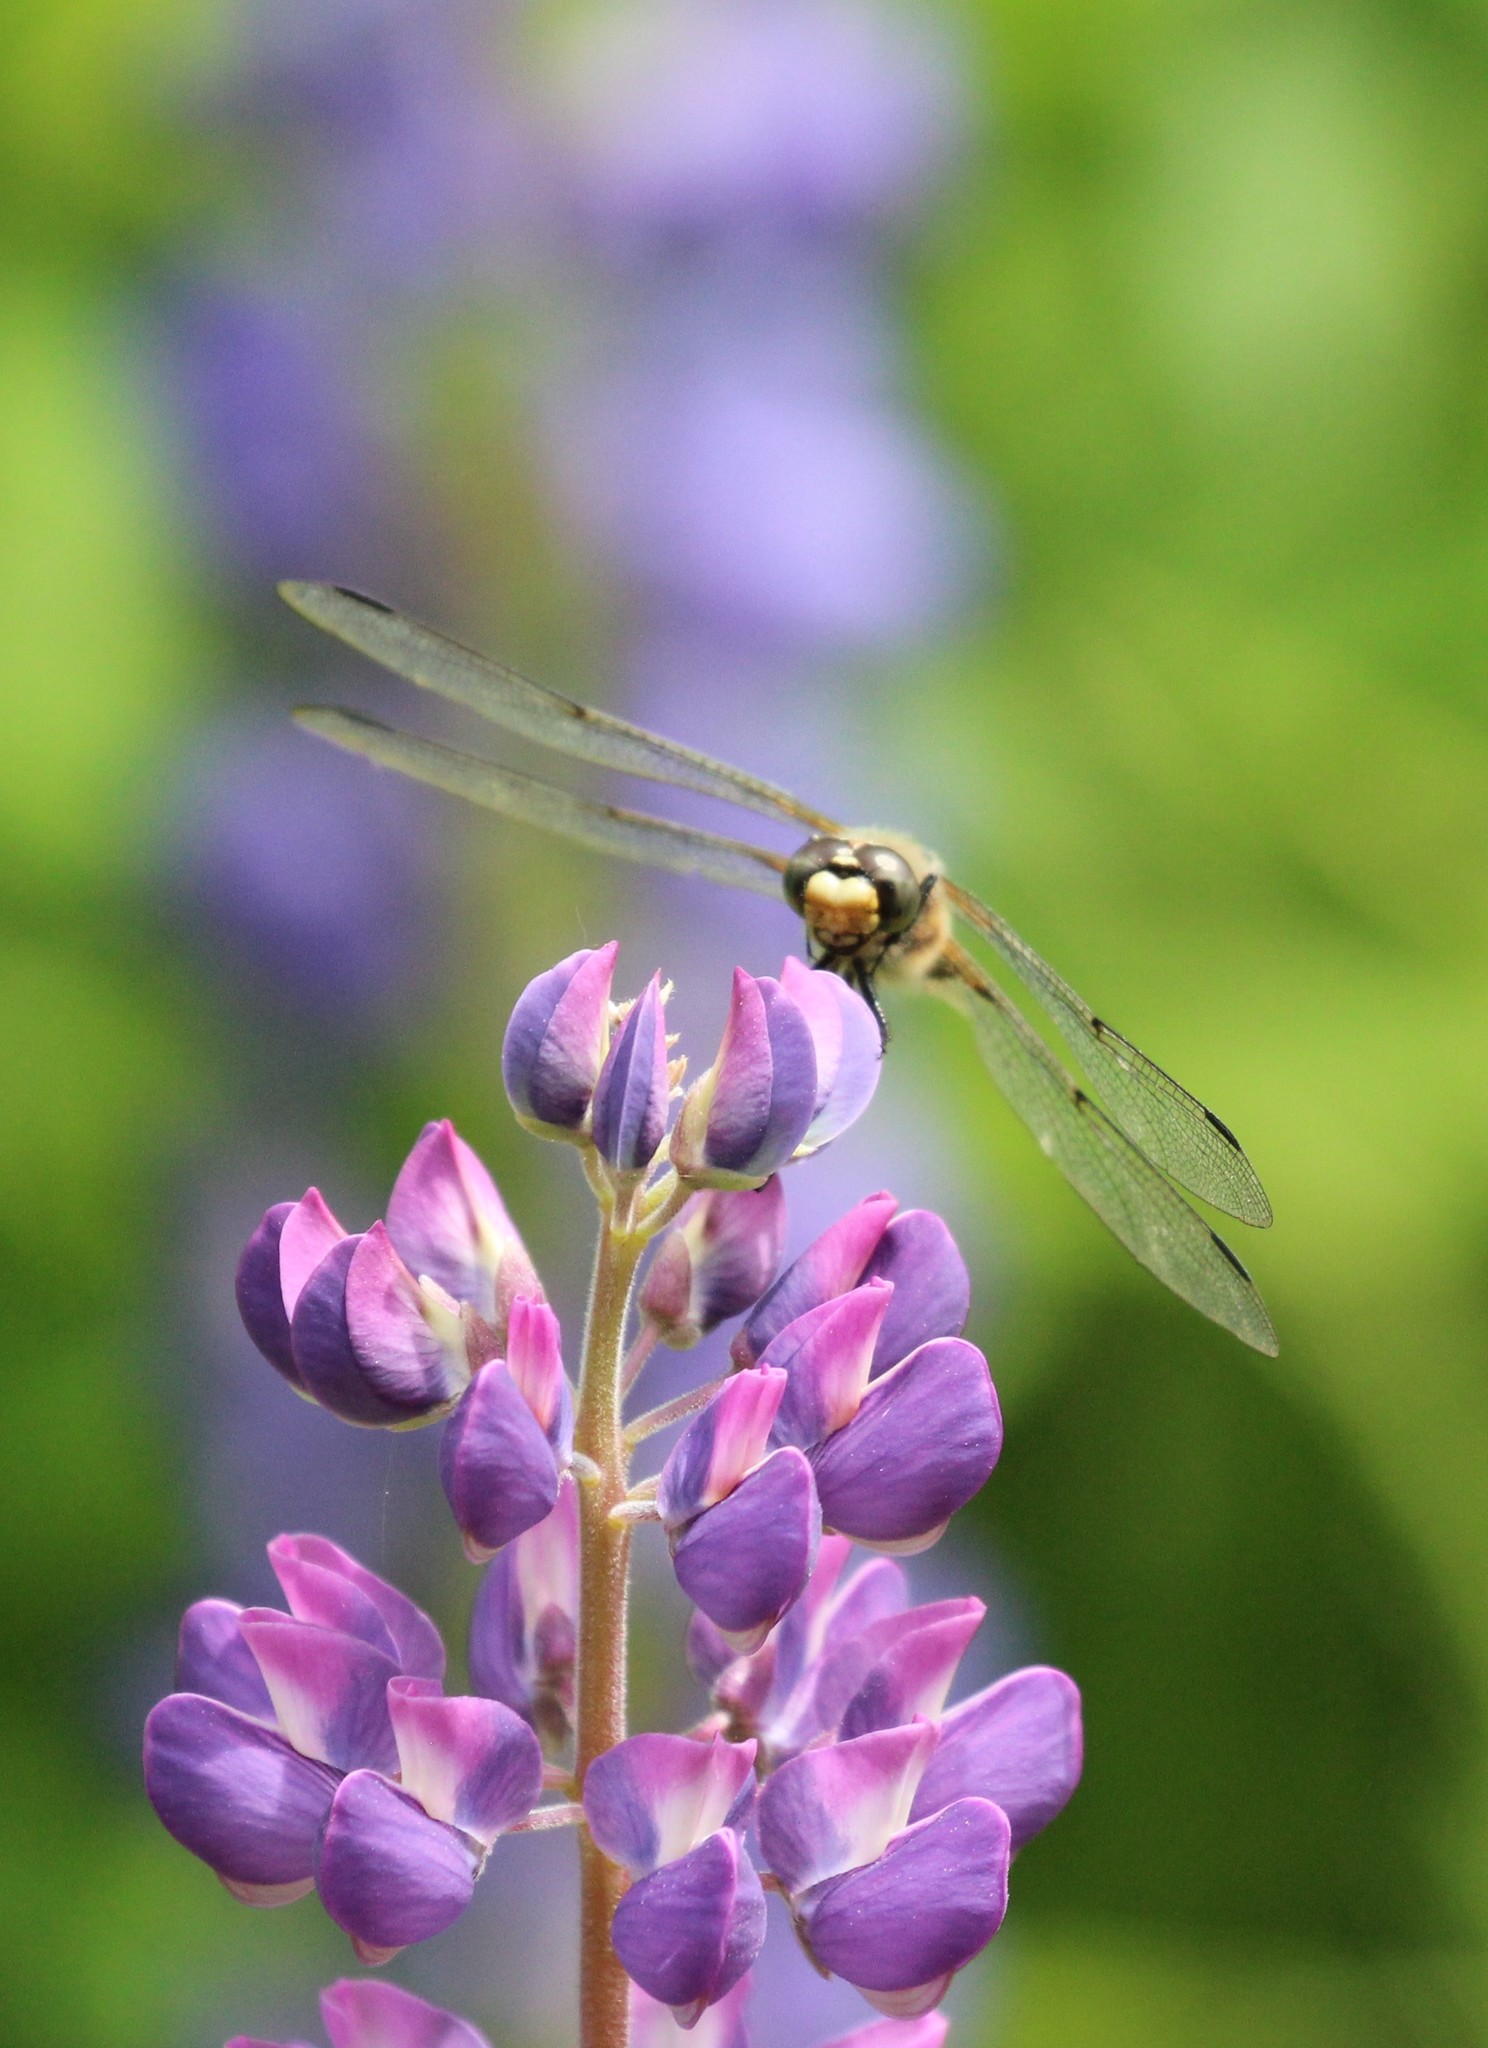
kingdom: Animalia
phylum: Arthropoda
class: Insecta
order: Odonata
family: Libellulidae
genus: Libellula
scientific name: Libellula quadrimaculata
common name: Four-spotted chaser
